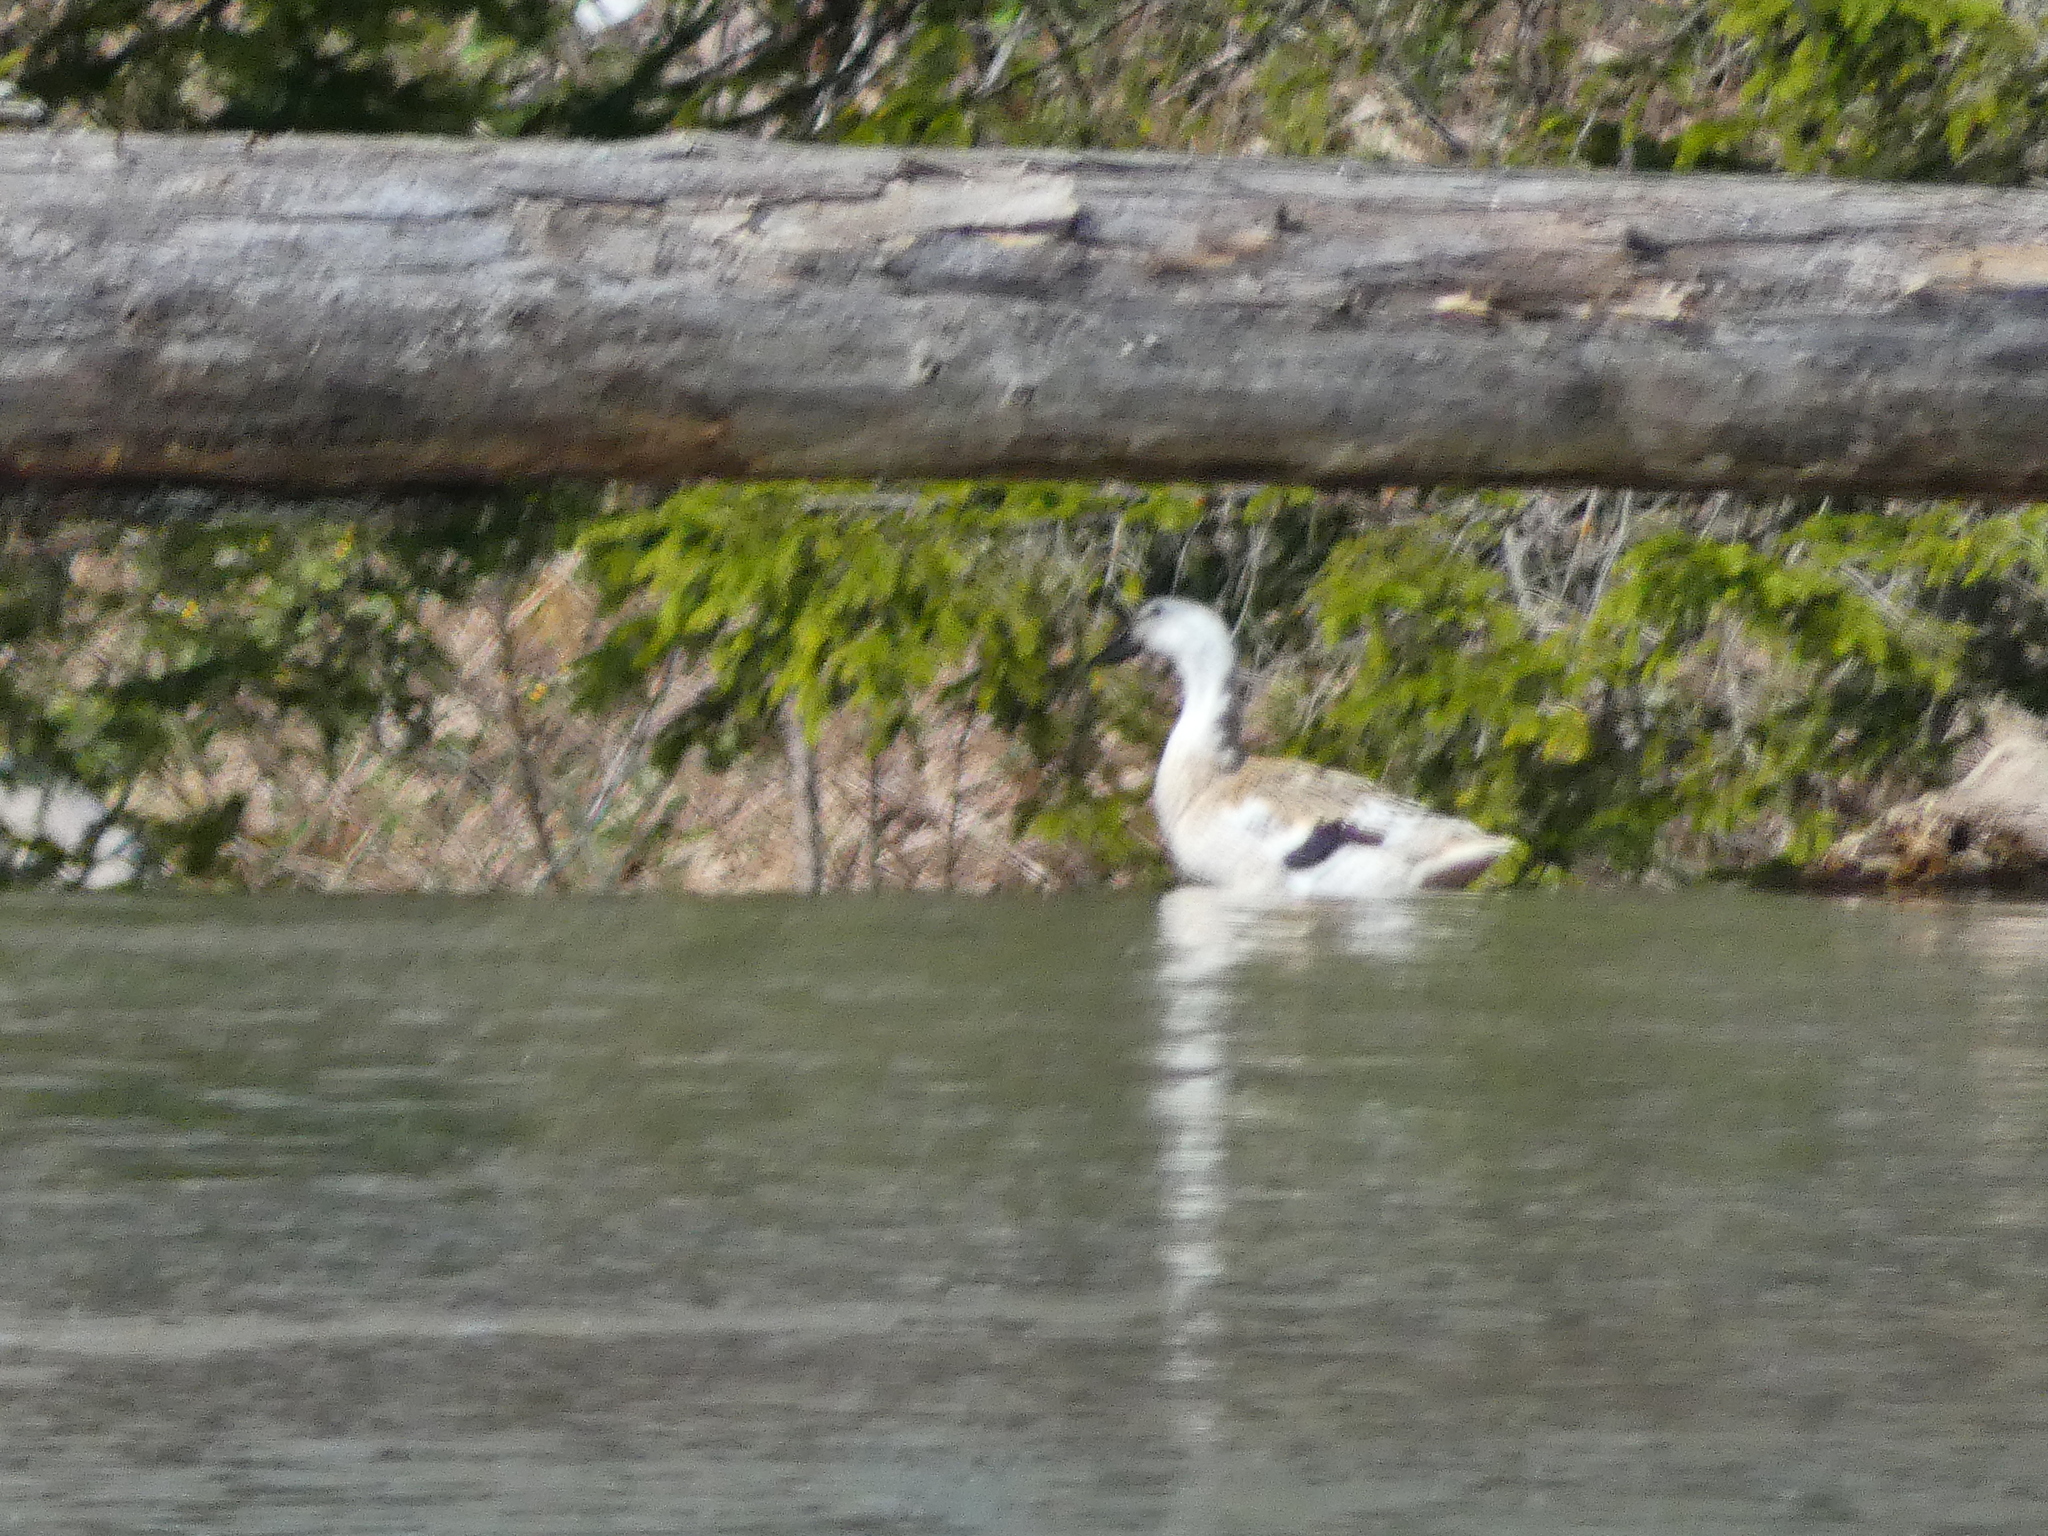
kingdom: Animalia
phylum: Chordata
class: Aves
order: Anseriformes
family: Anatidae
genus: Chloephaga
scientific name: Chloephaga picta
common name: Upland goose
